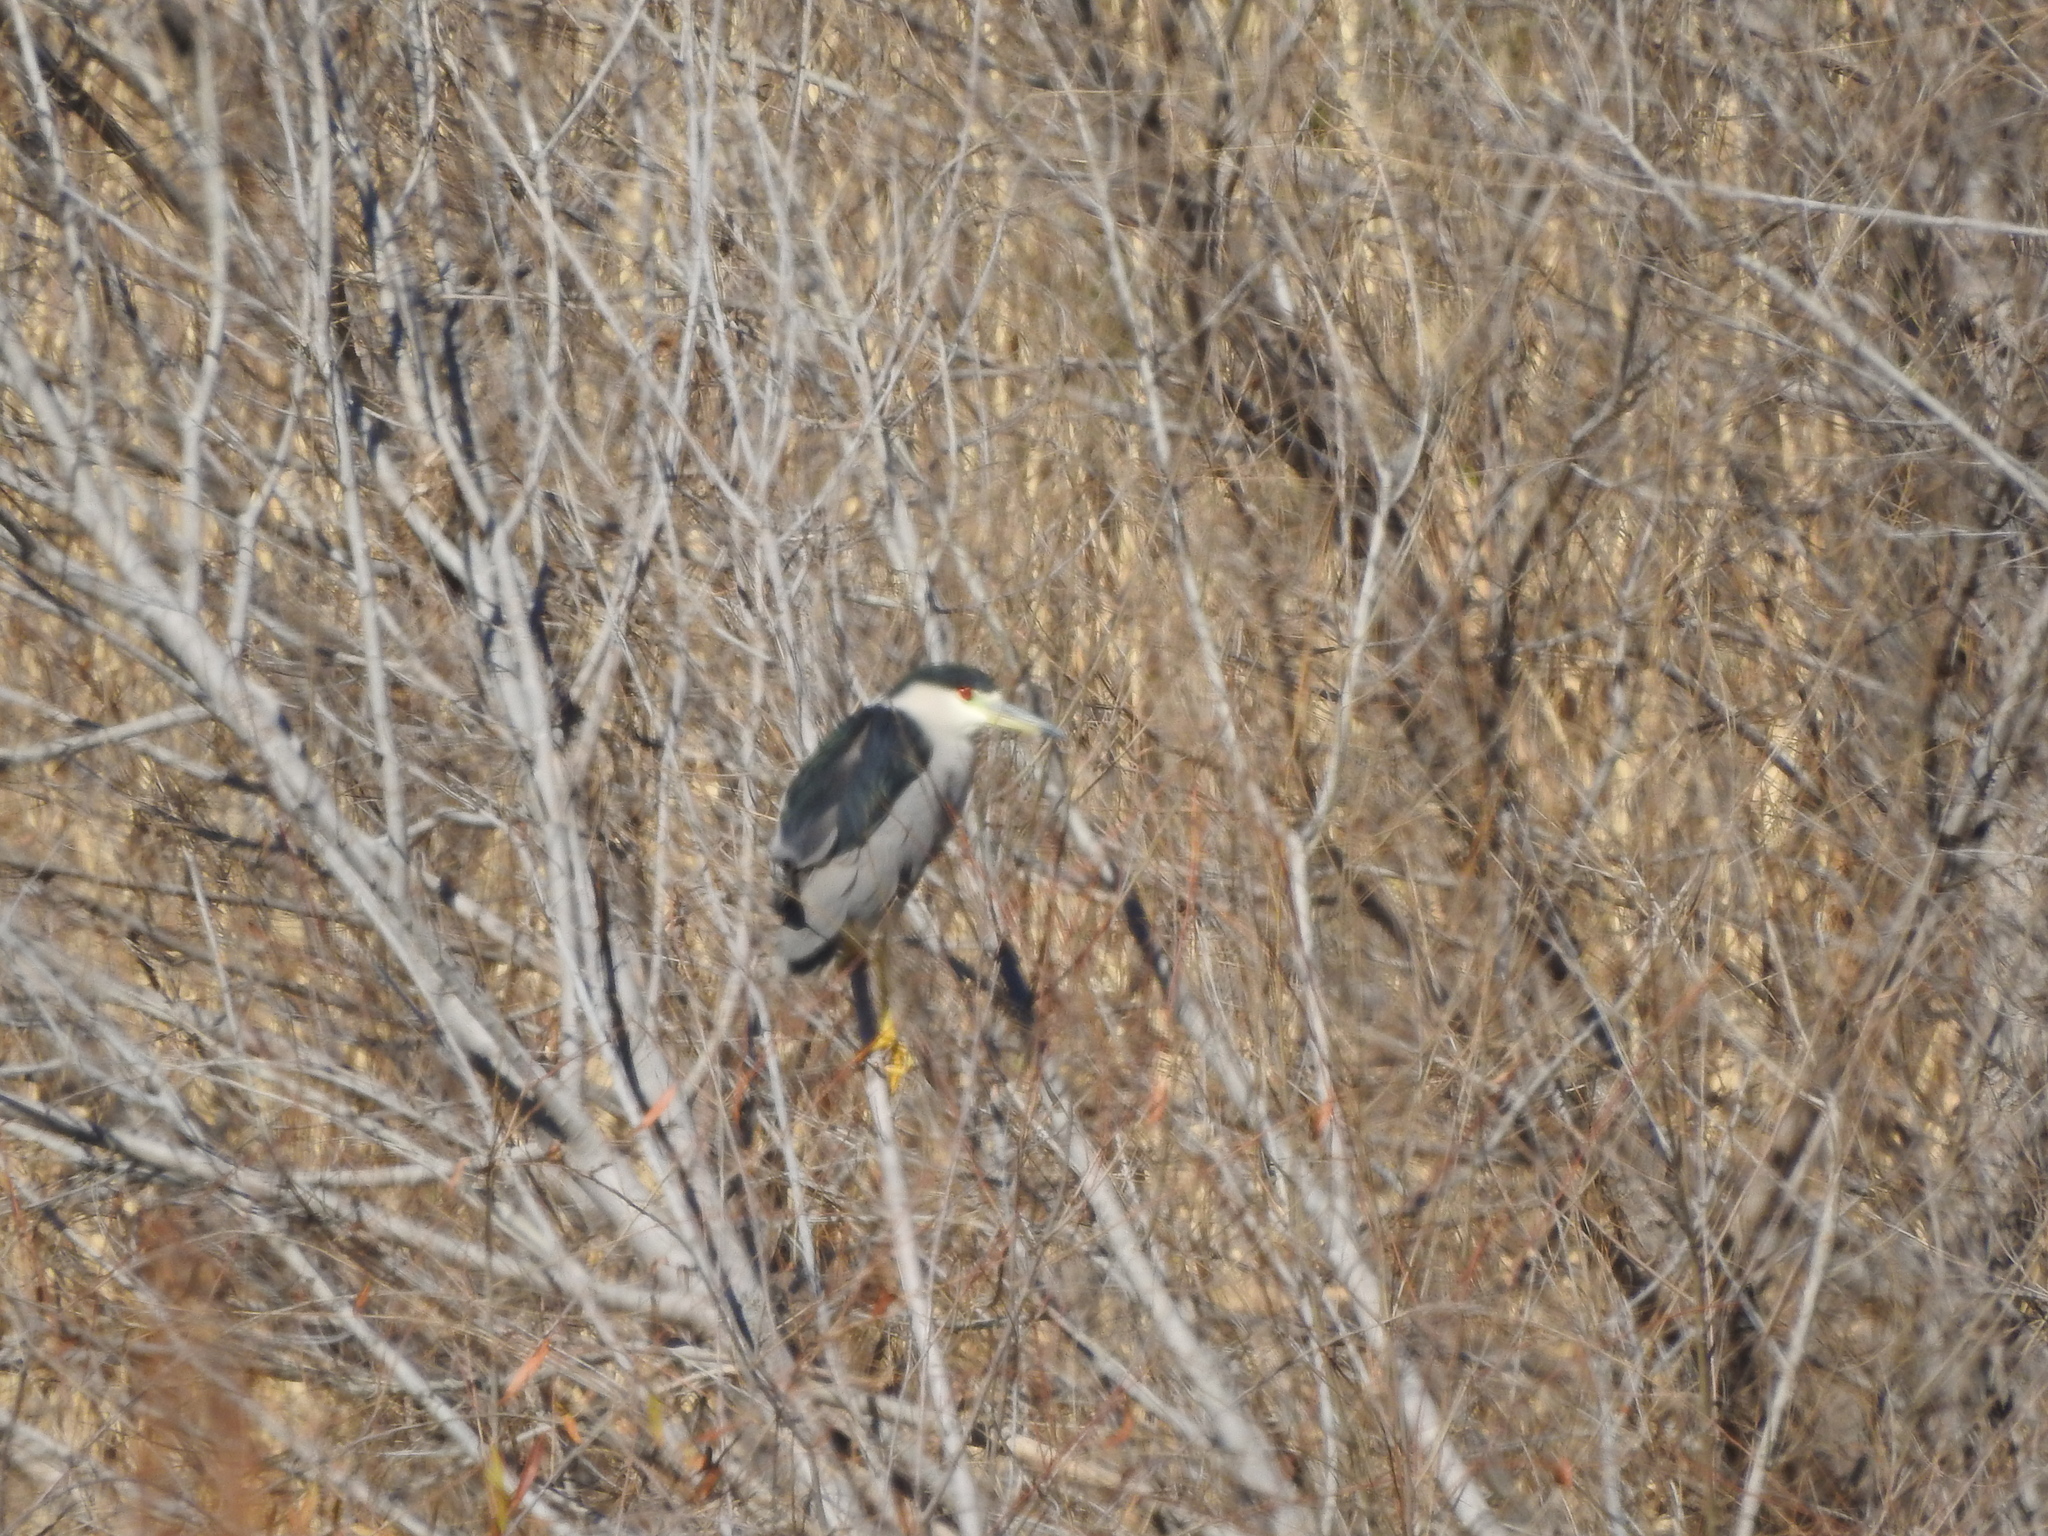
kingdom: Animalia
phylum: Chordata
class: Aves
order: Pelecaniformes
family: Ardeidae
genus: Nycticorax
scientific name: Nycticorax nycticorax
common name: Black-crowned night heron
